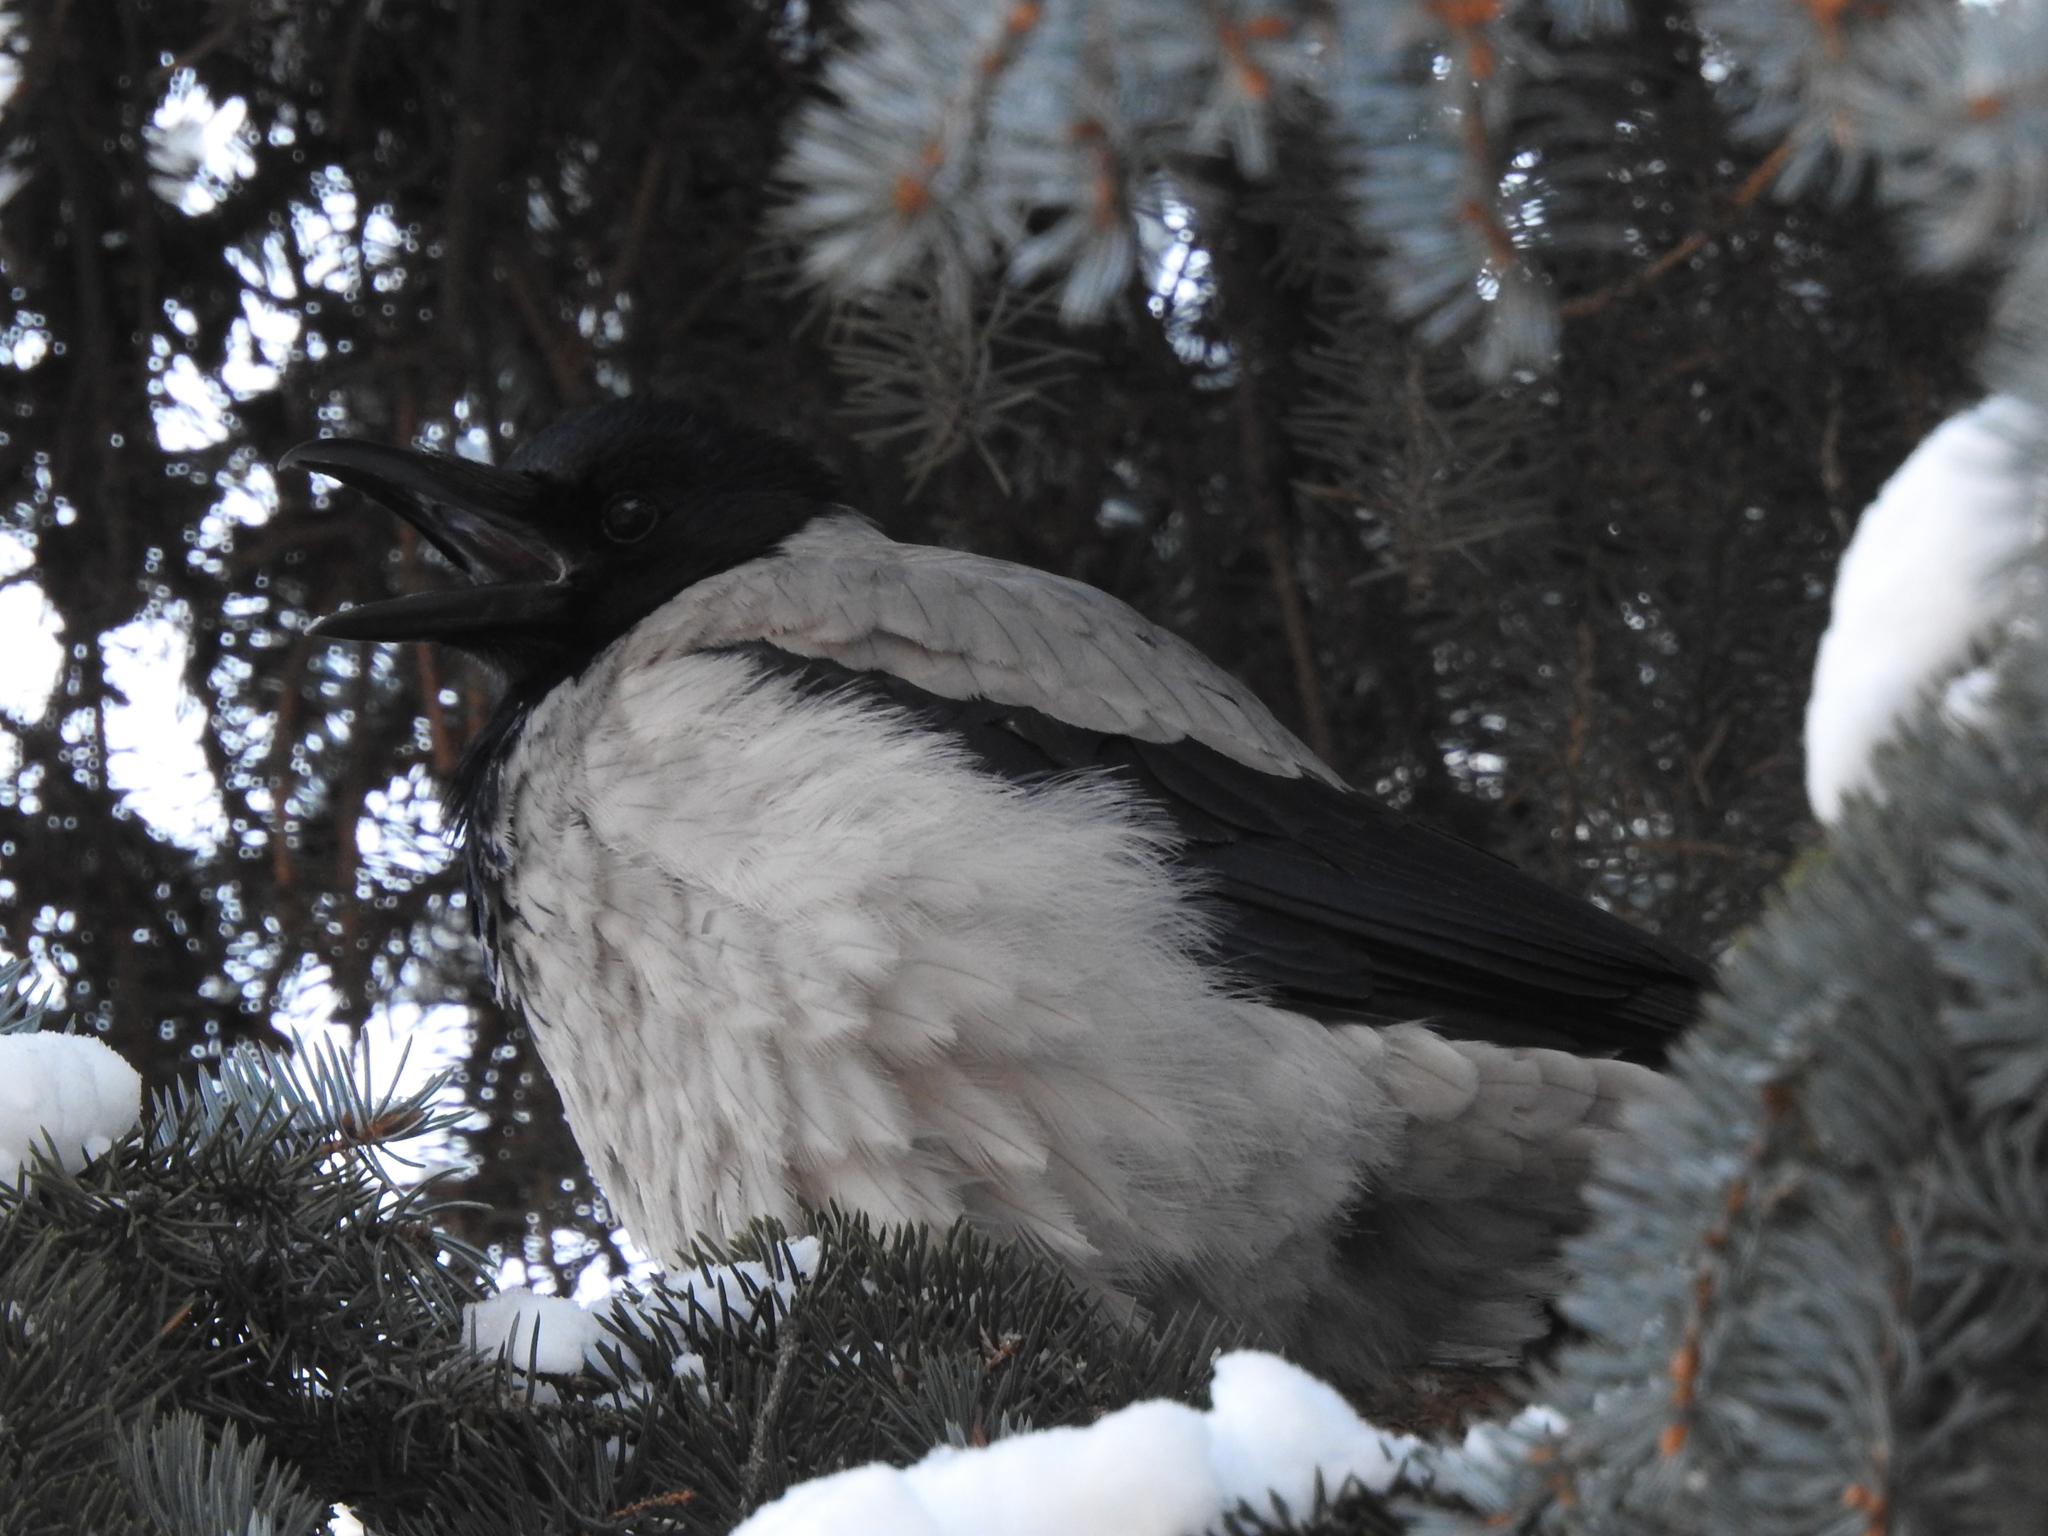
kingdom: Animalia
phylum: Chordata
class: Aves
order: Passeriformes
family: Corvidae
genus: Corvus
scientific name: Corvus cornix
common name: Hooded crow
